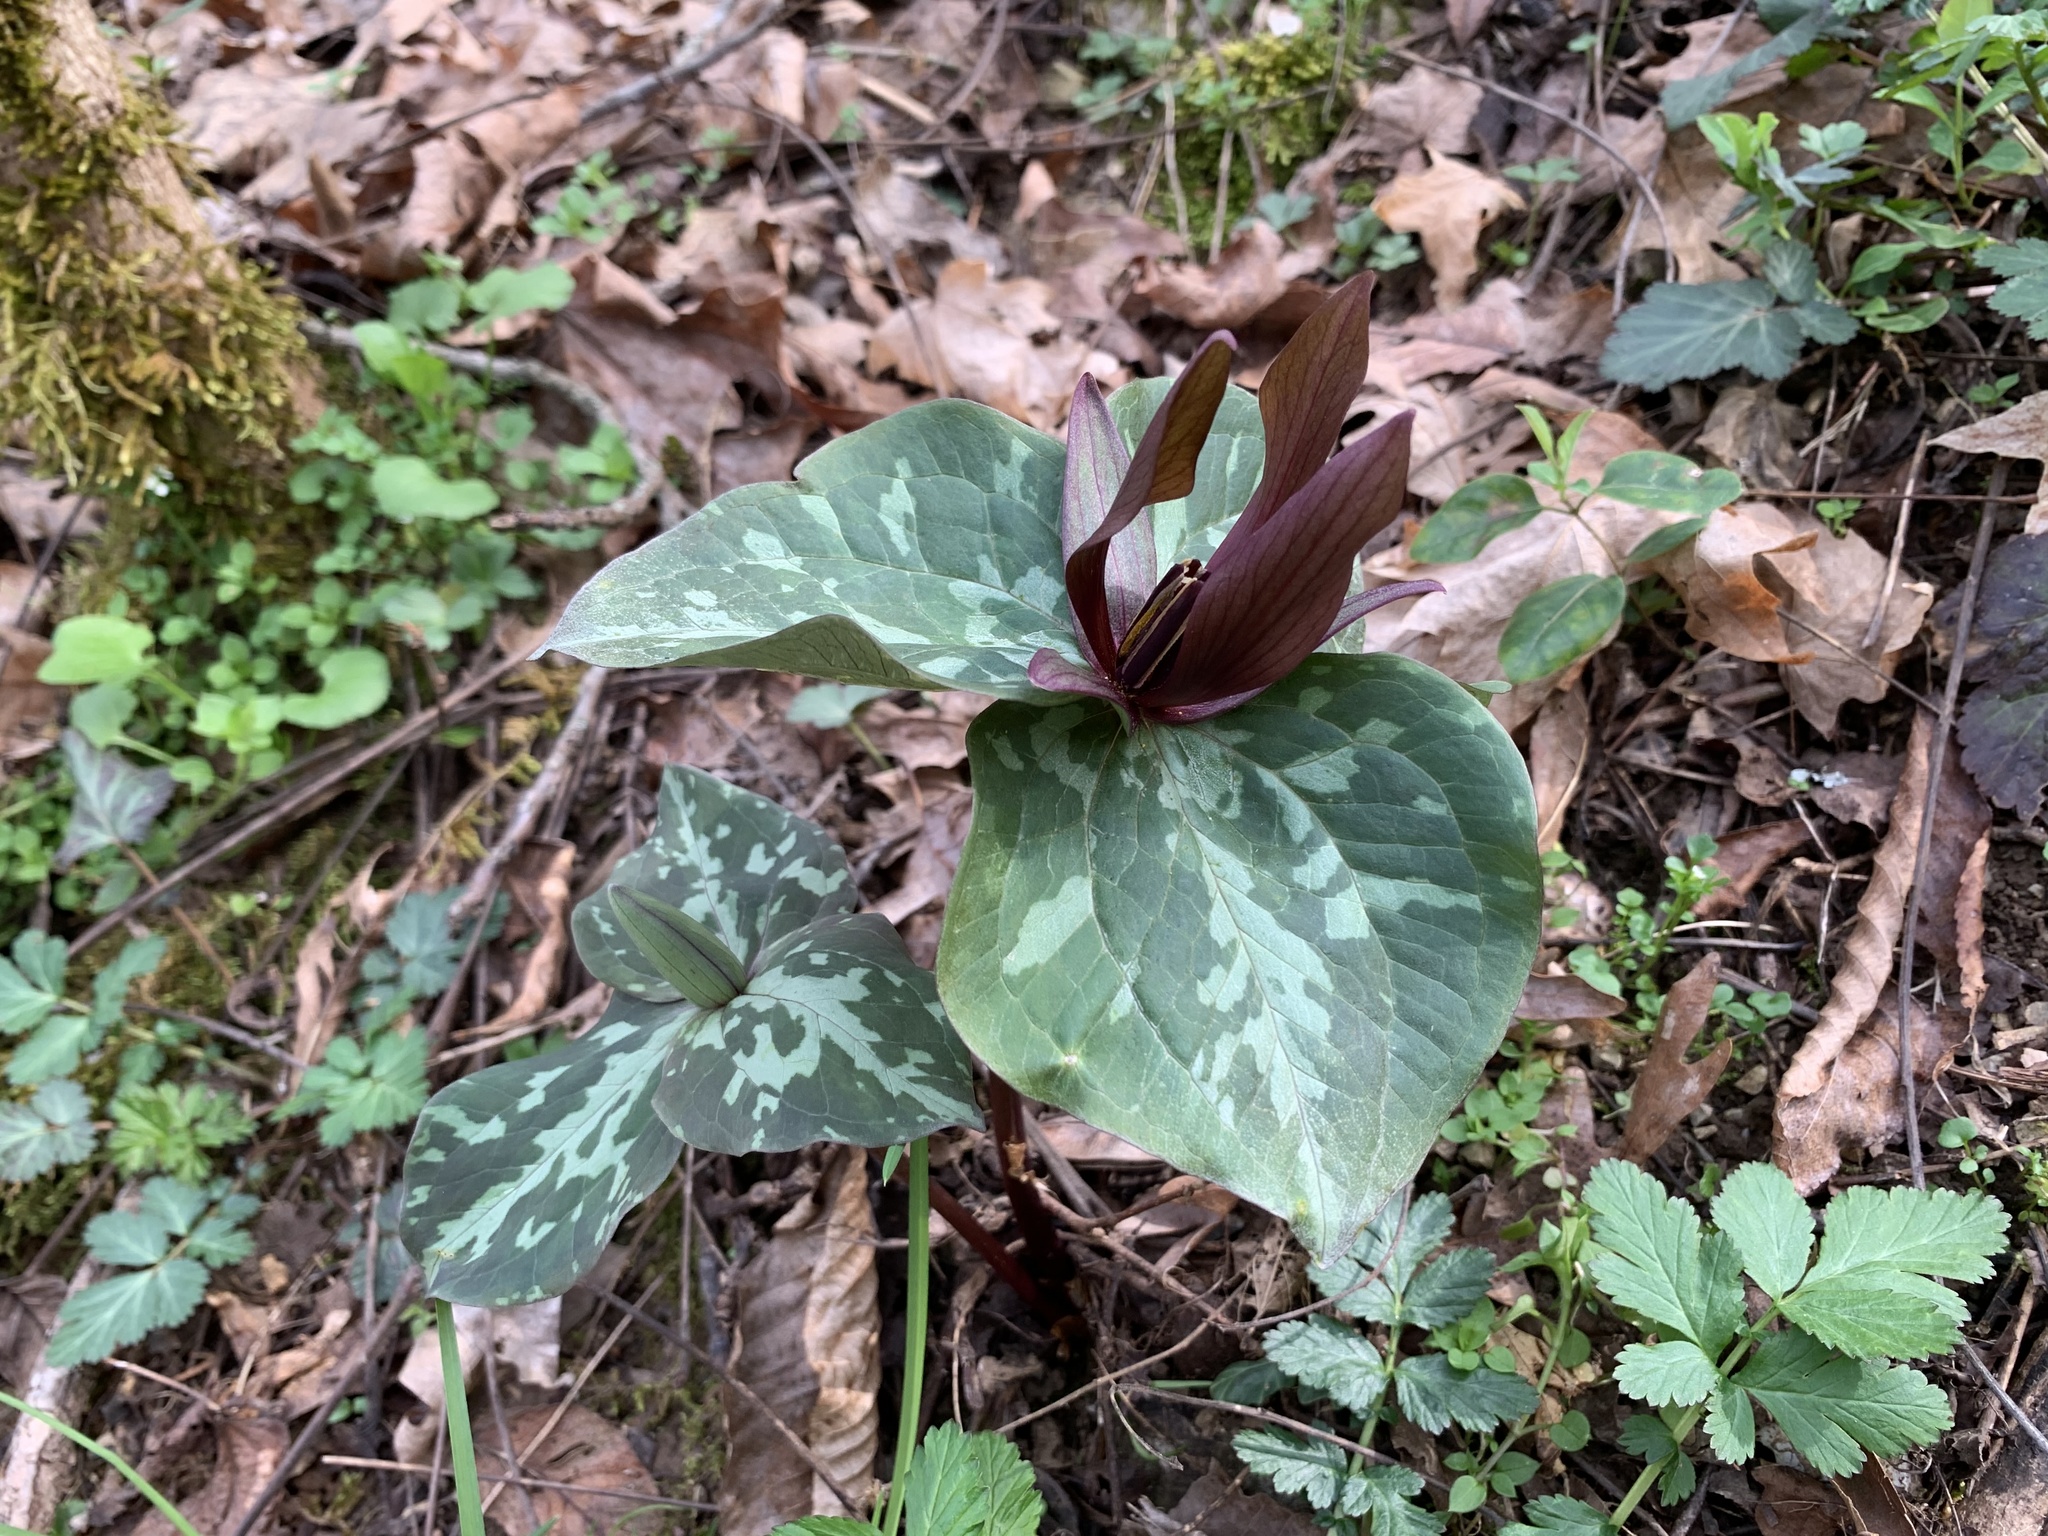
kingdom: Plantae
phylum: Tracheophyta
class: Liliopsida
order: Liliales
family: Melanthiaceae
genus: Trillium
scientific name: Trillium cuneatum
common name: Cuneate trillium
